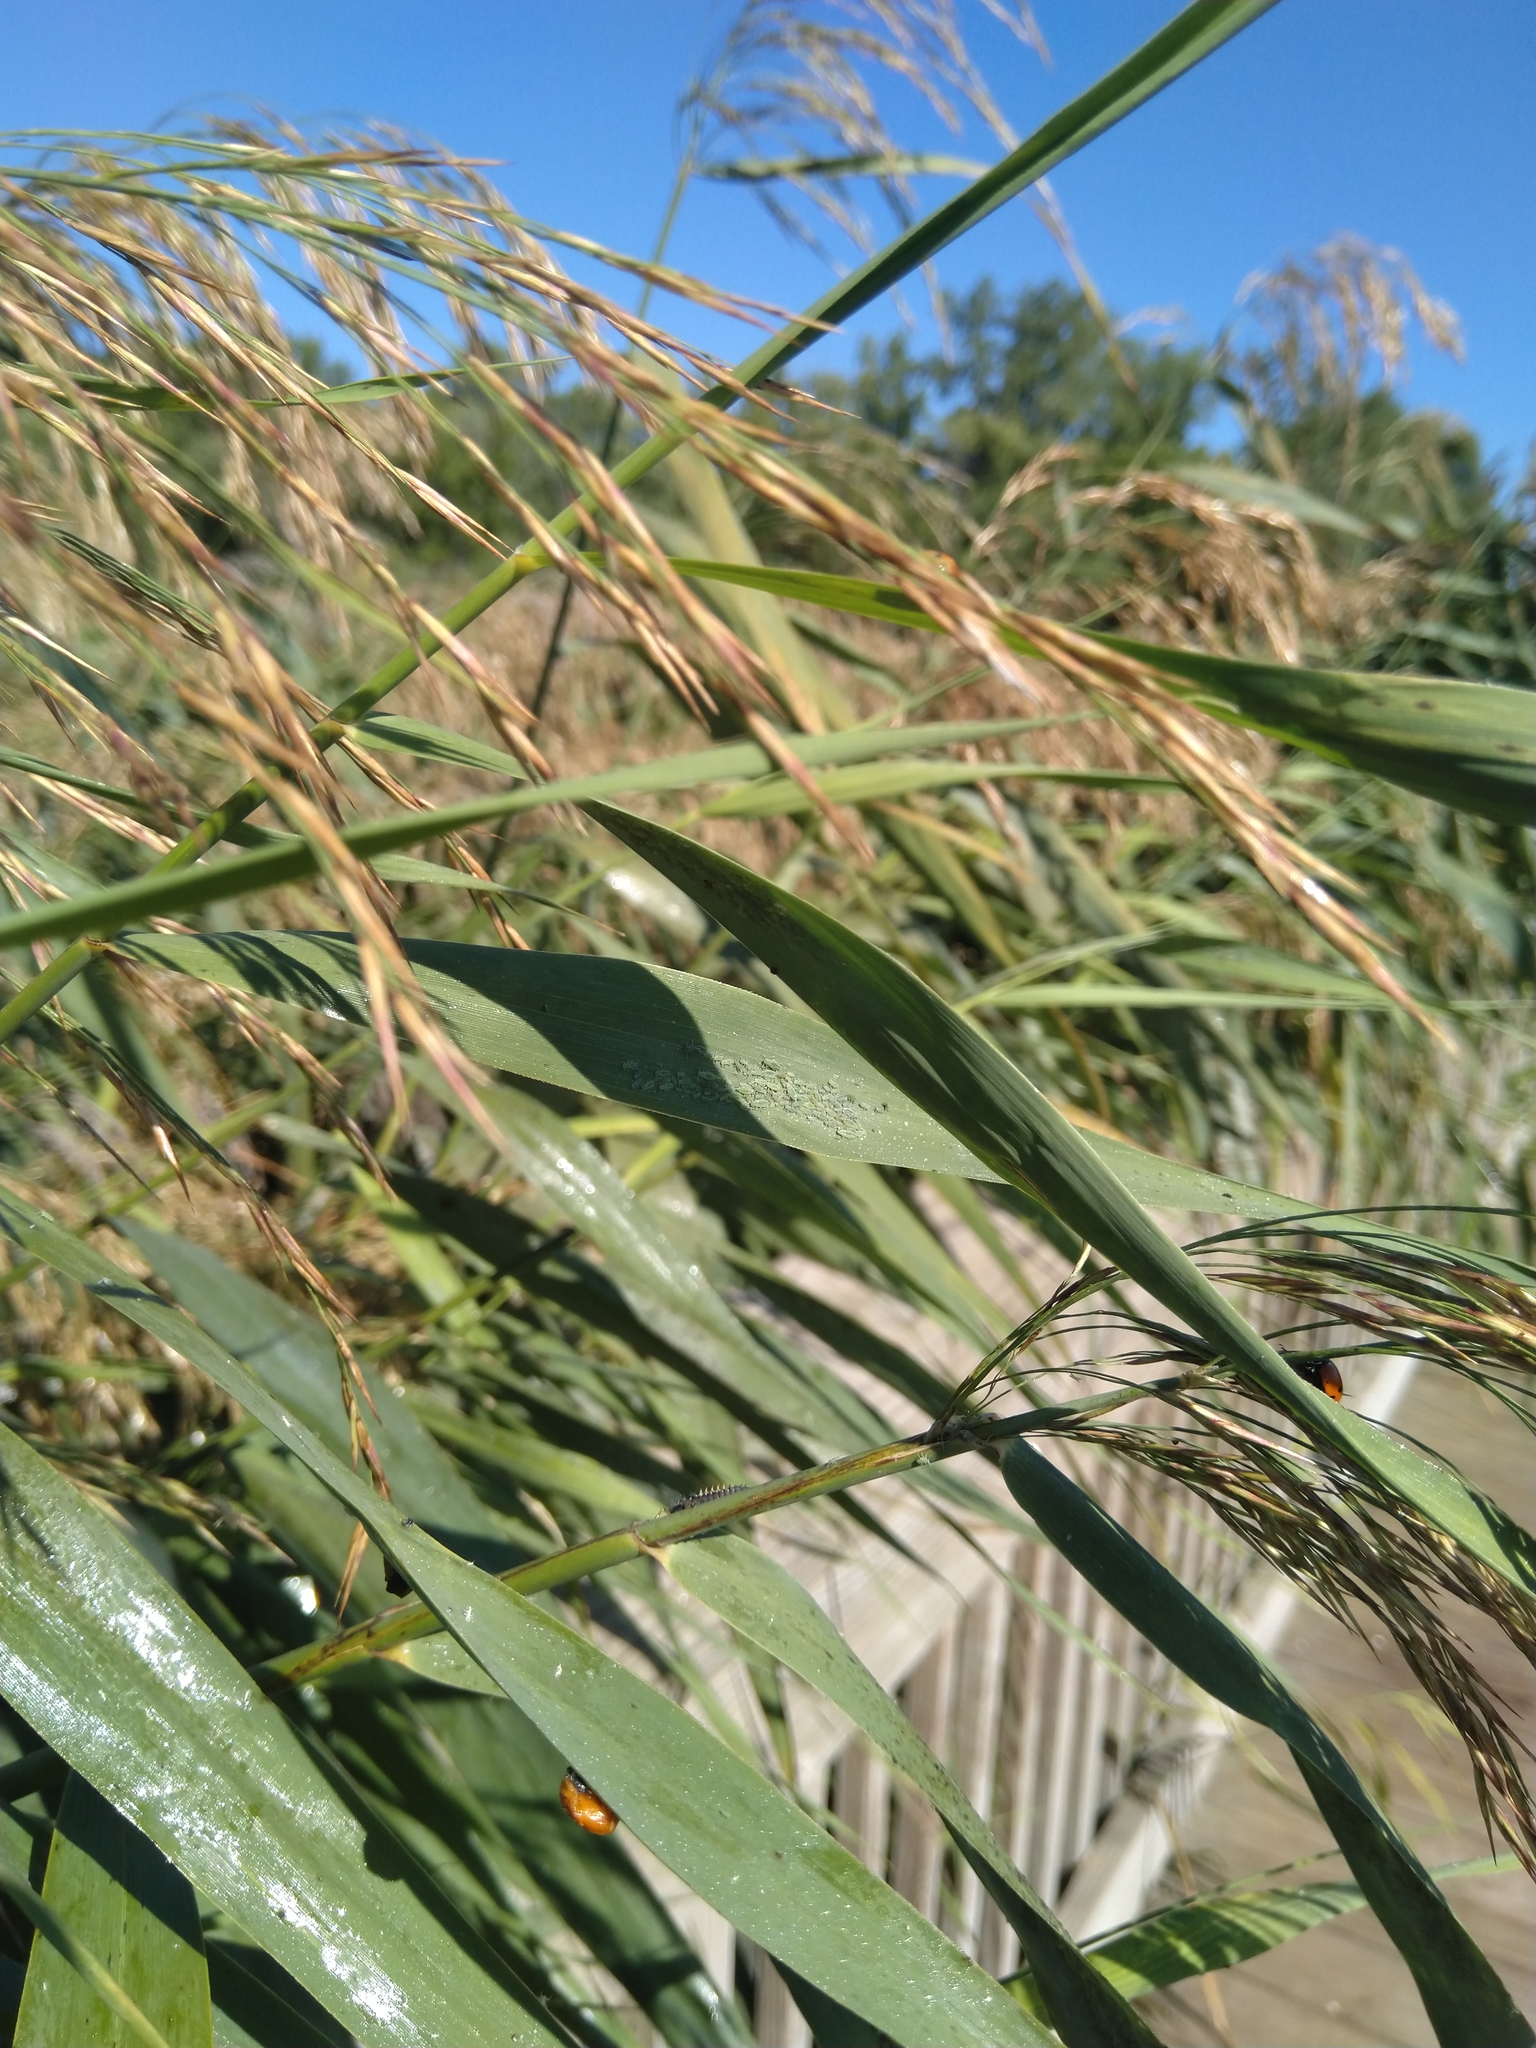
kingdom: Plantae
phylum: Tracheophyta
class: Liliopsida
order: Poales
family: Poaceae
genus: Phragmites
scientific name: Phragmites australis
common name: Common reed
